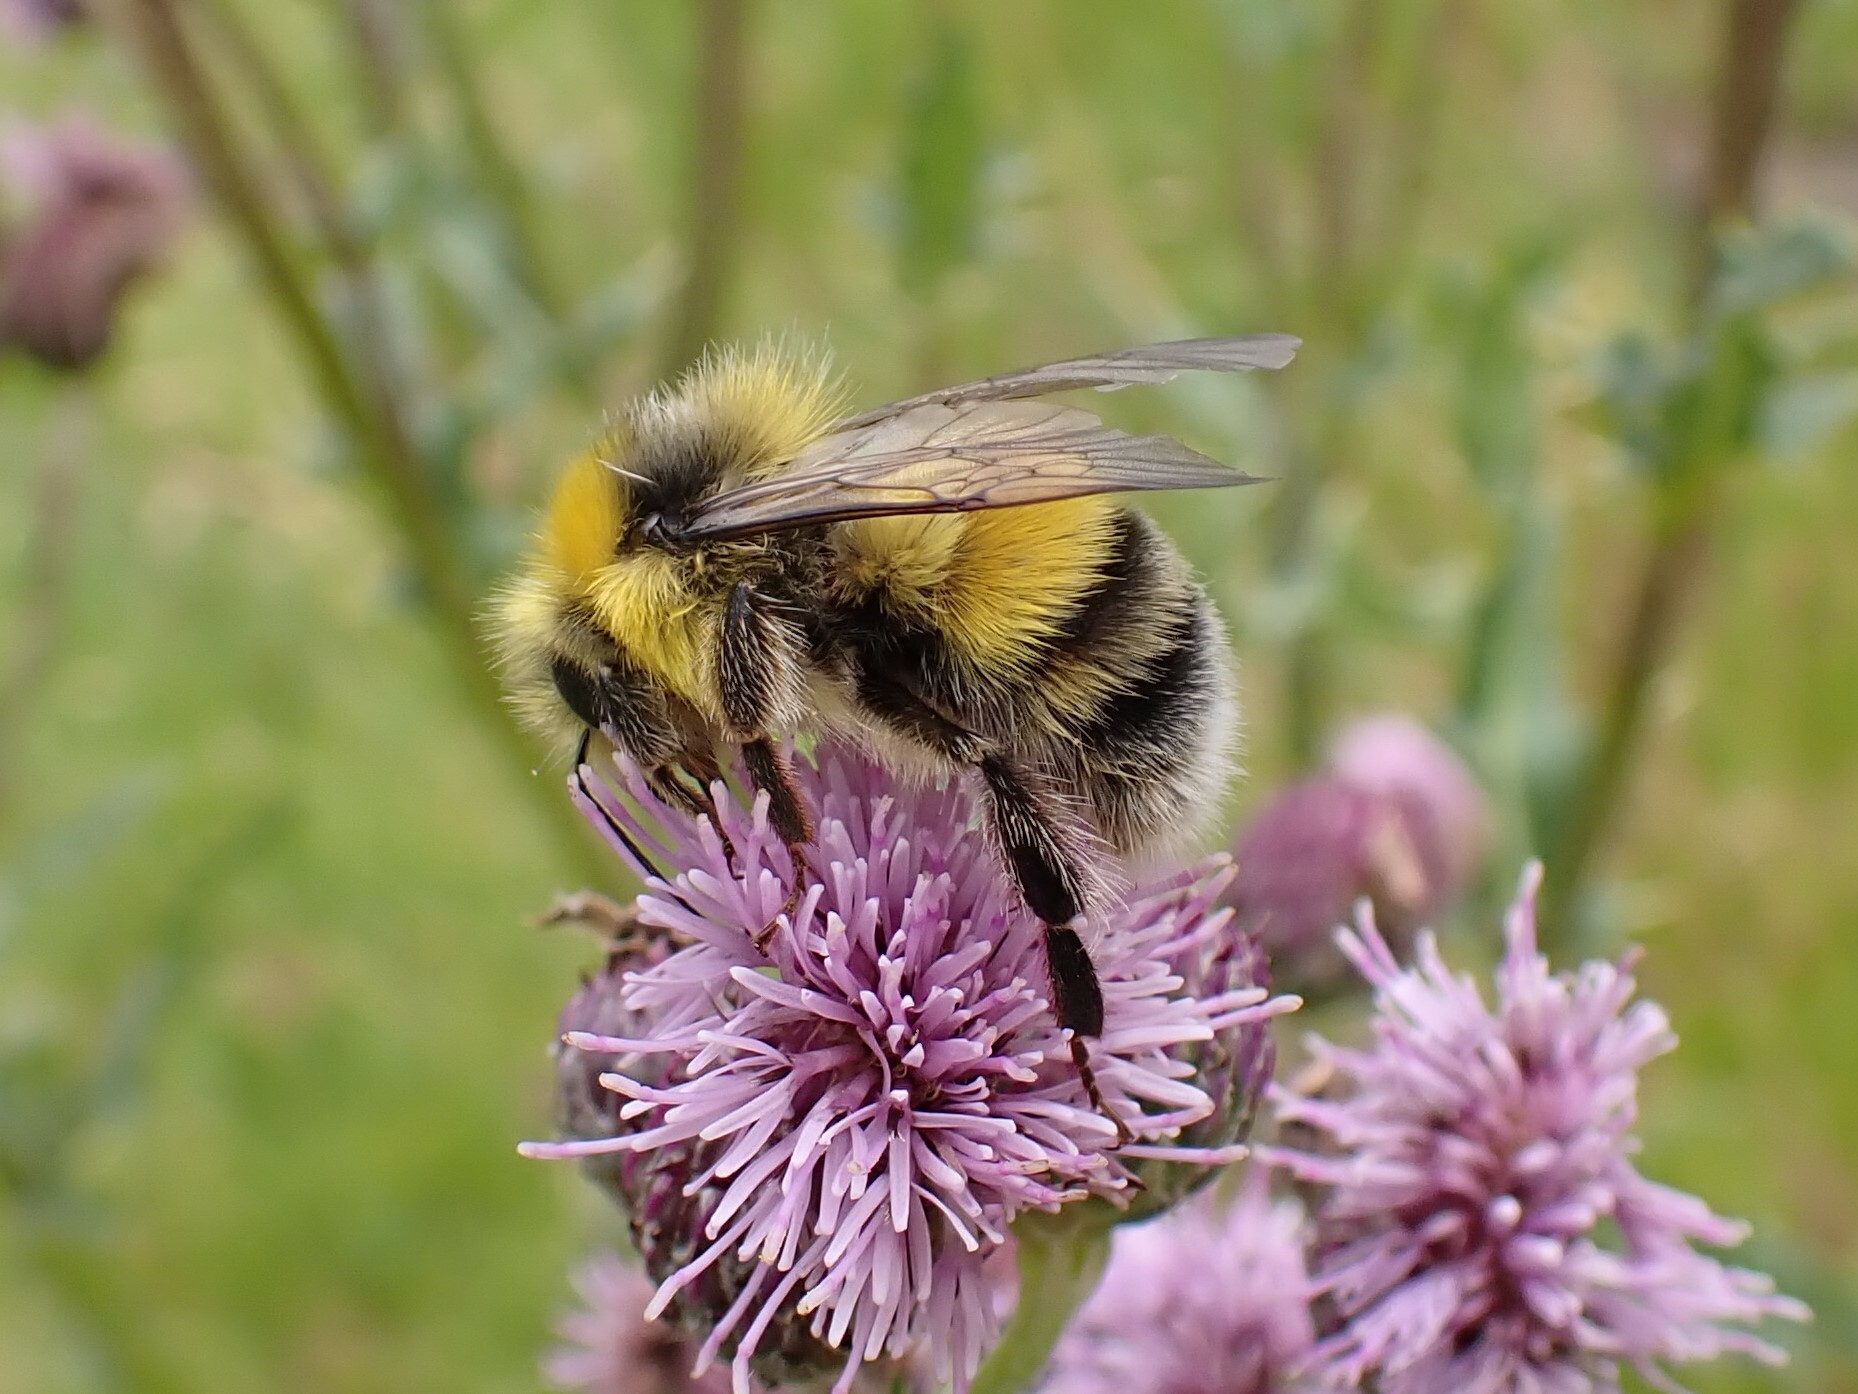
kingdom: Animalia
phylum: Arthropoda
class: Insecta
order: Hymenoptera
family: Apidae
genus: Bombus
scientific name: Bombus lucorum
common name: White-tailed bumblebee
